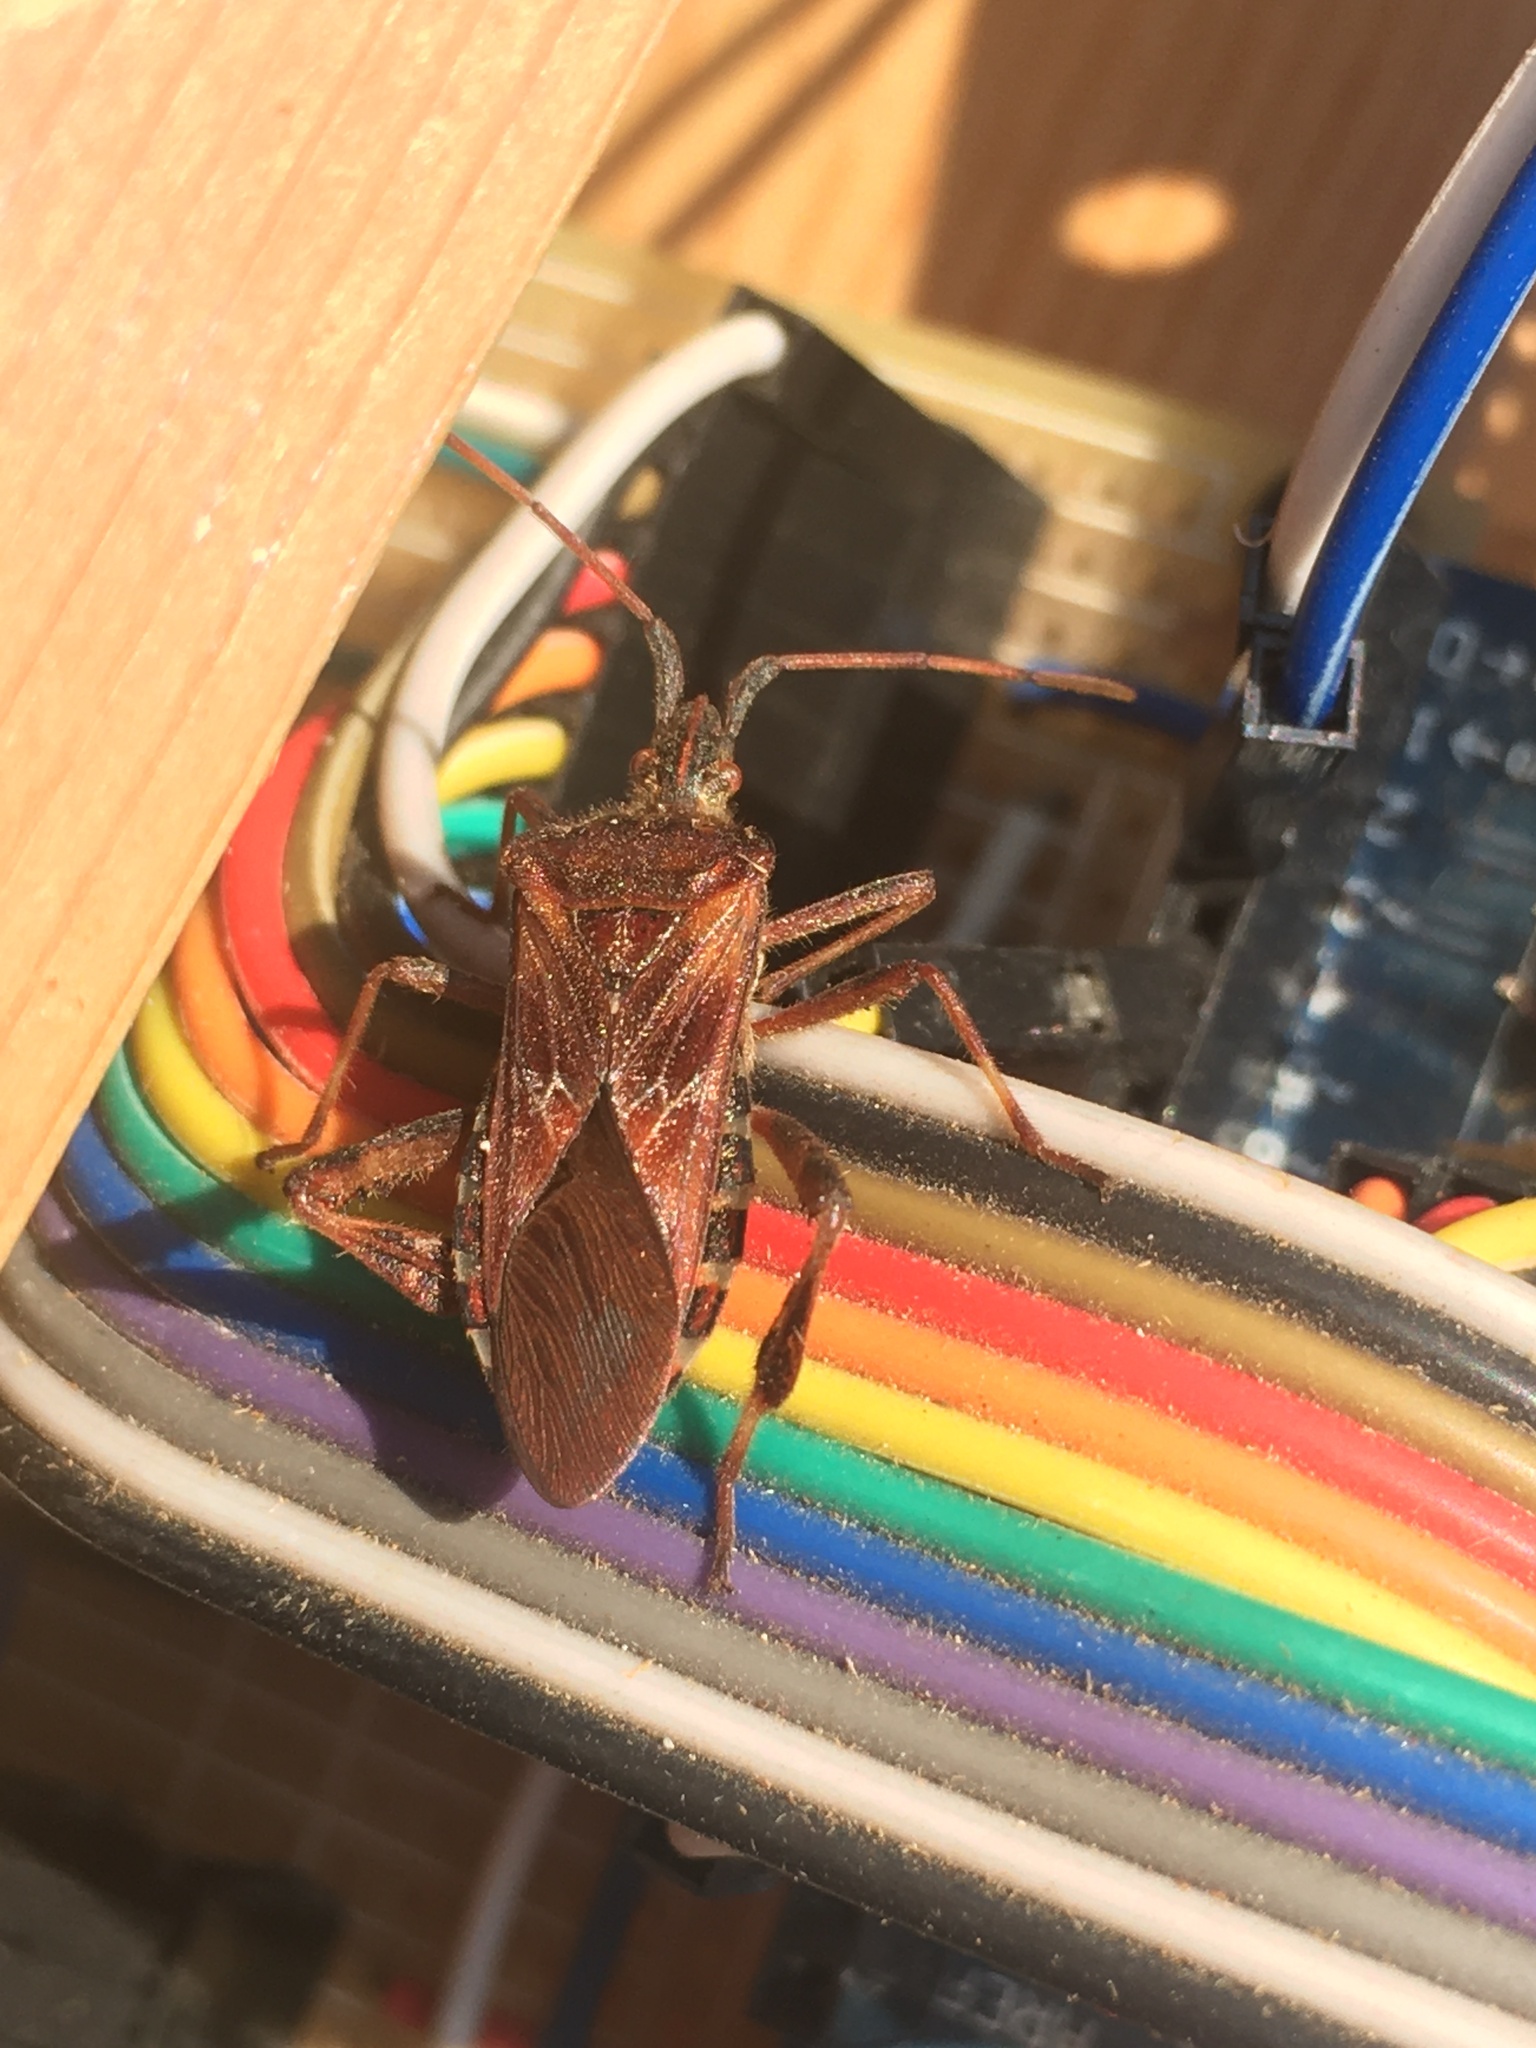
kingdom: Animalia
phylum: Arthropoda
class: Insecta
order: Hemiptera
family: Coreidae
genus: Leptoglossus
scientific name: Leptoglossus occidentalis
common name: Western conifer-seed bug
